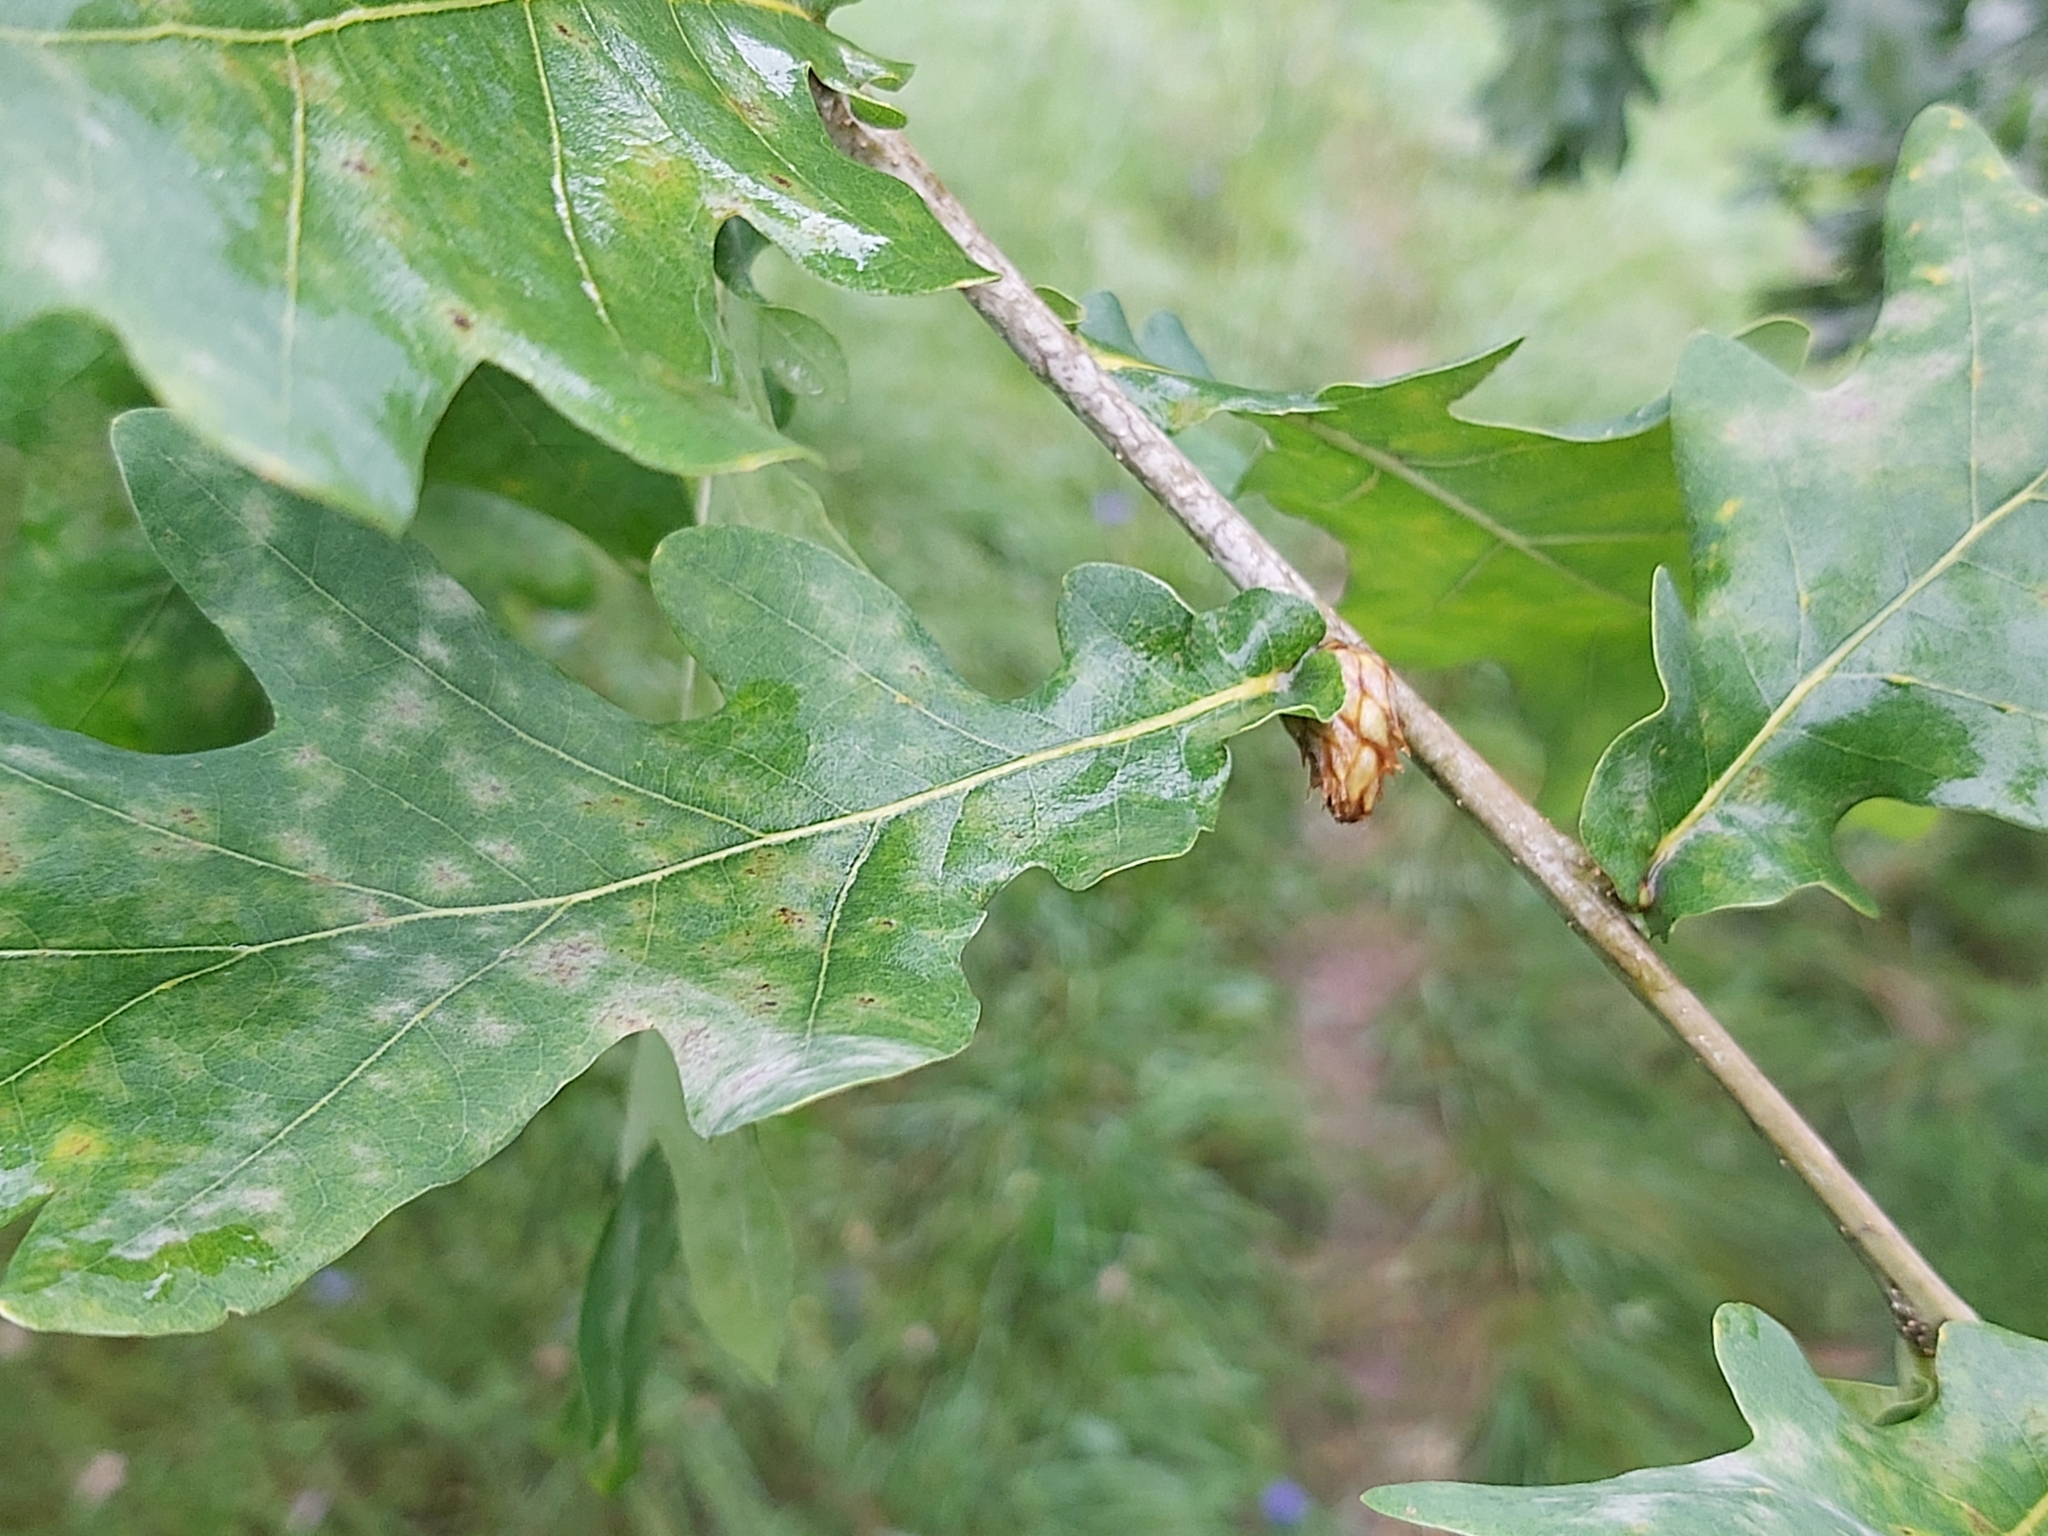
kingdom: Animalia
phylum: Arthropoda
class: Insecta
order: Hymenoptera
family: Cynipidae
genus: Andricus
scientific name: Andricus foecundatrix
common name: Artichoke gall
